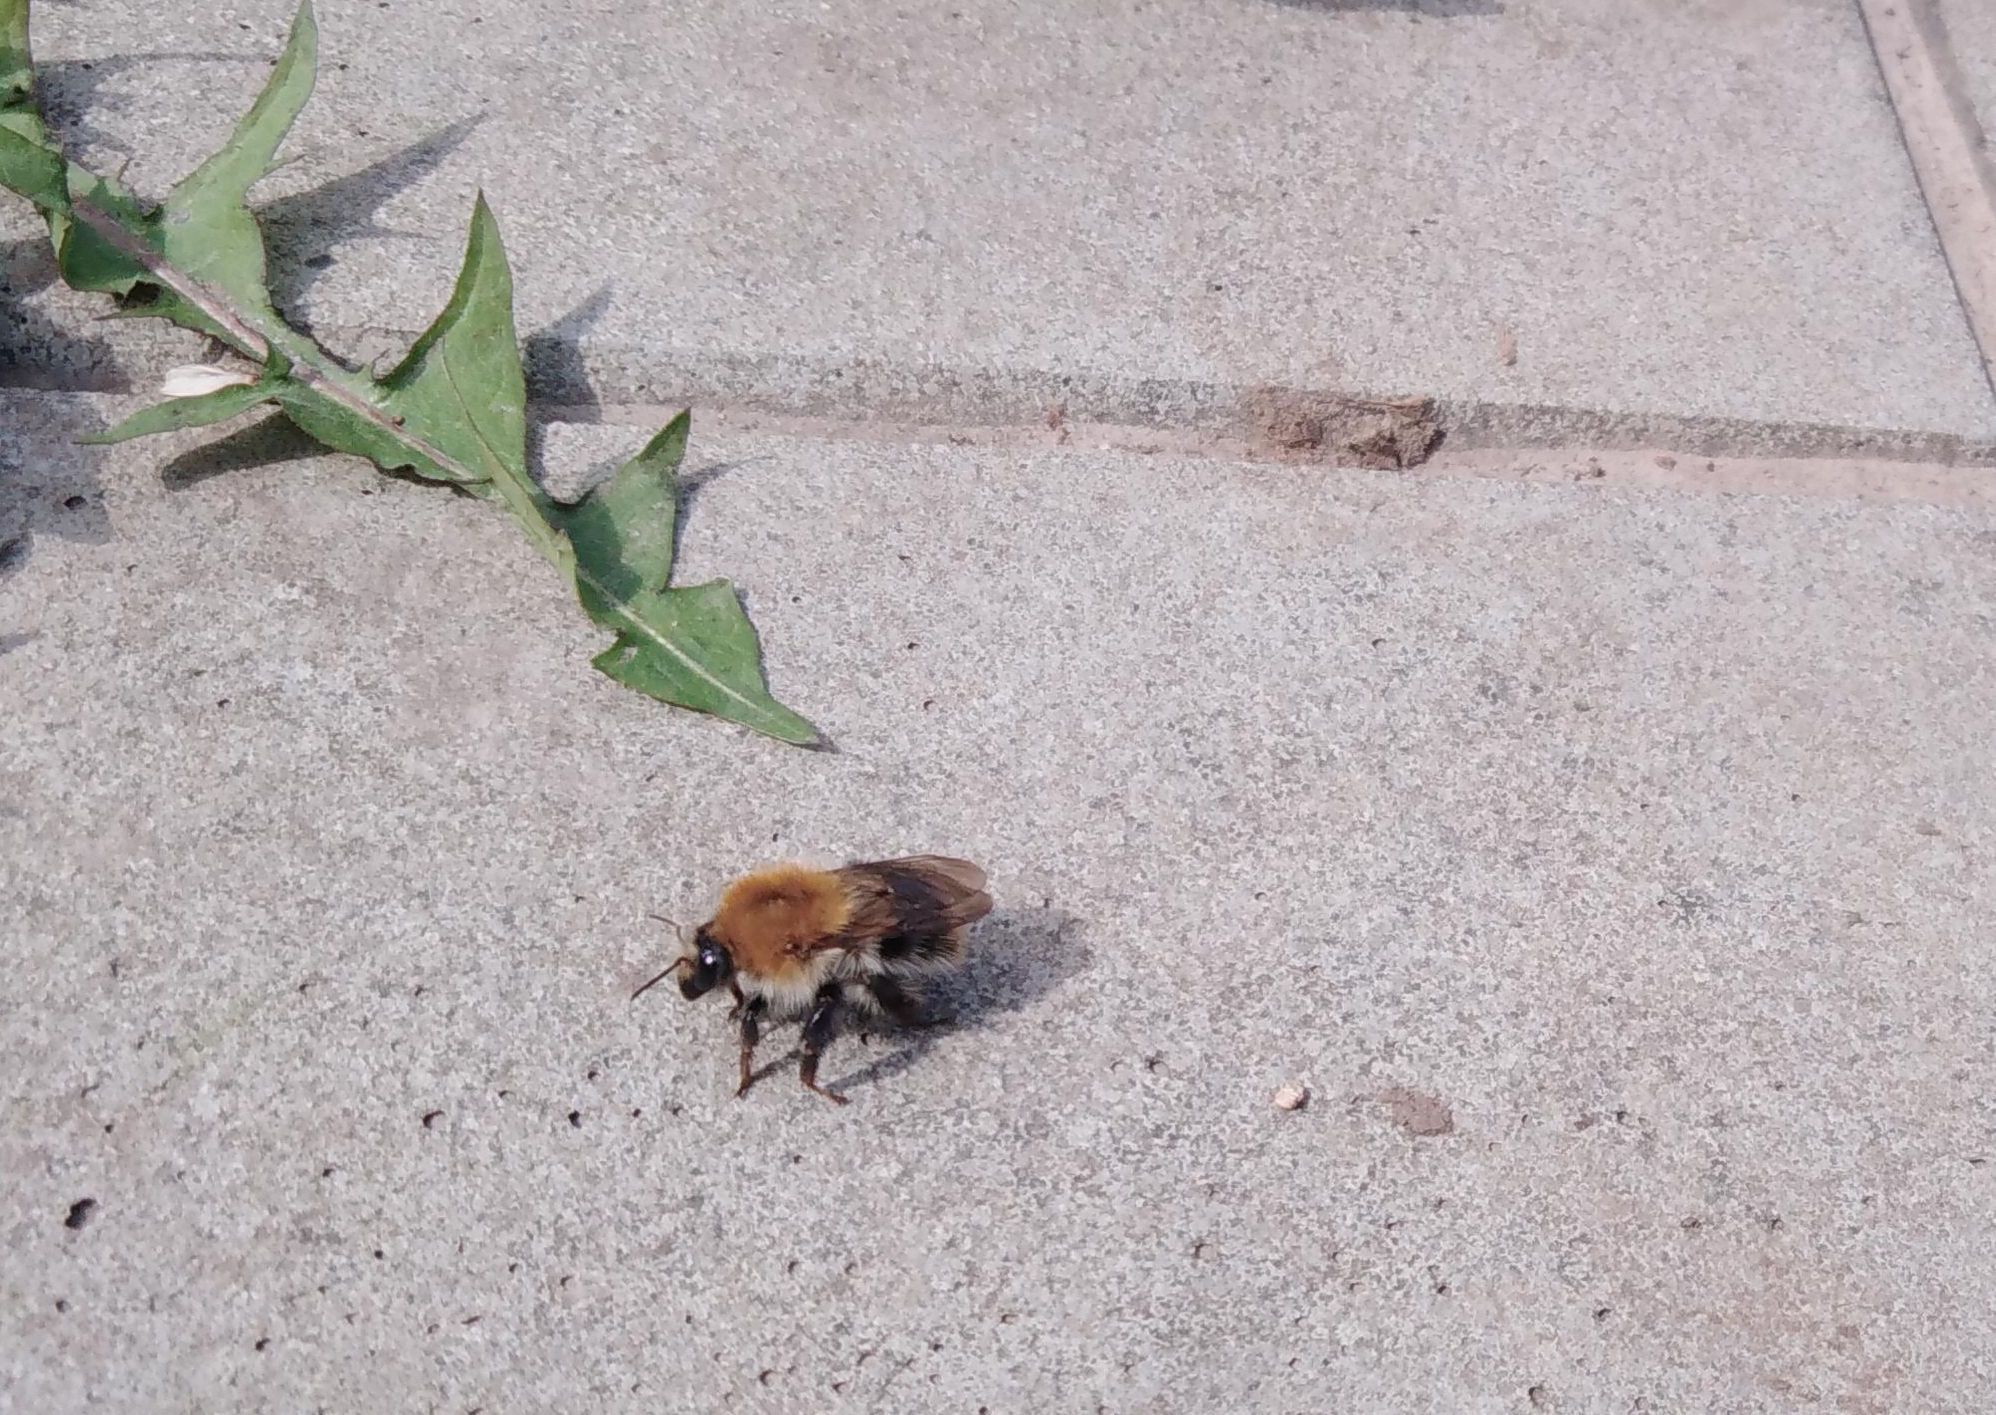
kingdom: Animalia
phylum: Arthropoda
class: Insecta
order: Hymenoptera
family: Apidae
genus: Bombus
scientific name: Bombus pascuorum
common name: Common carder bee
